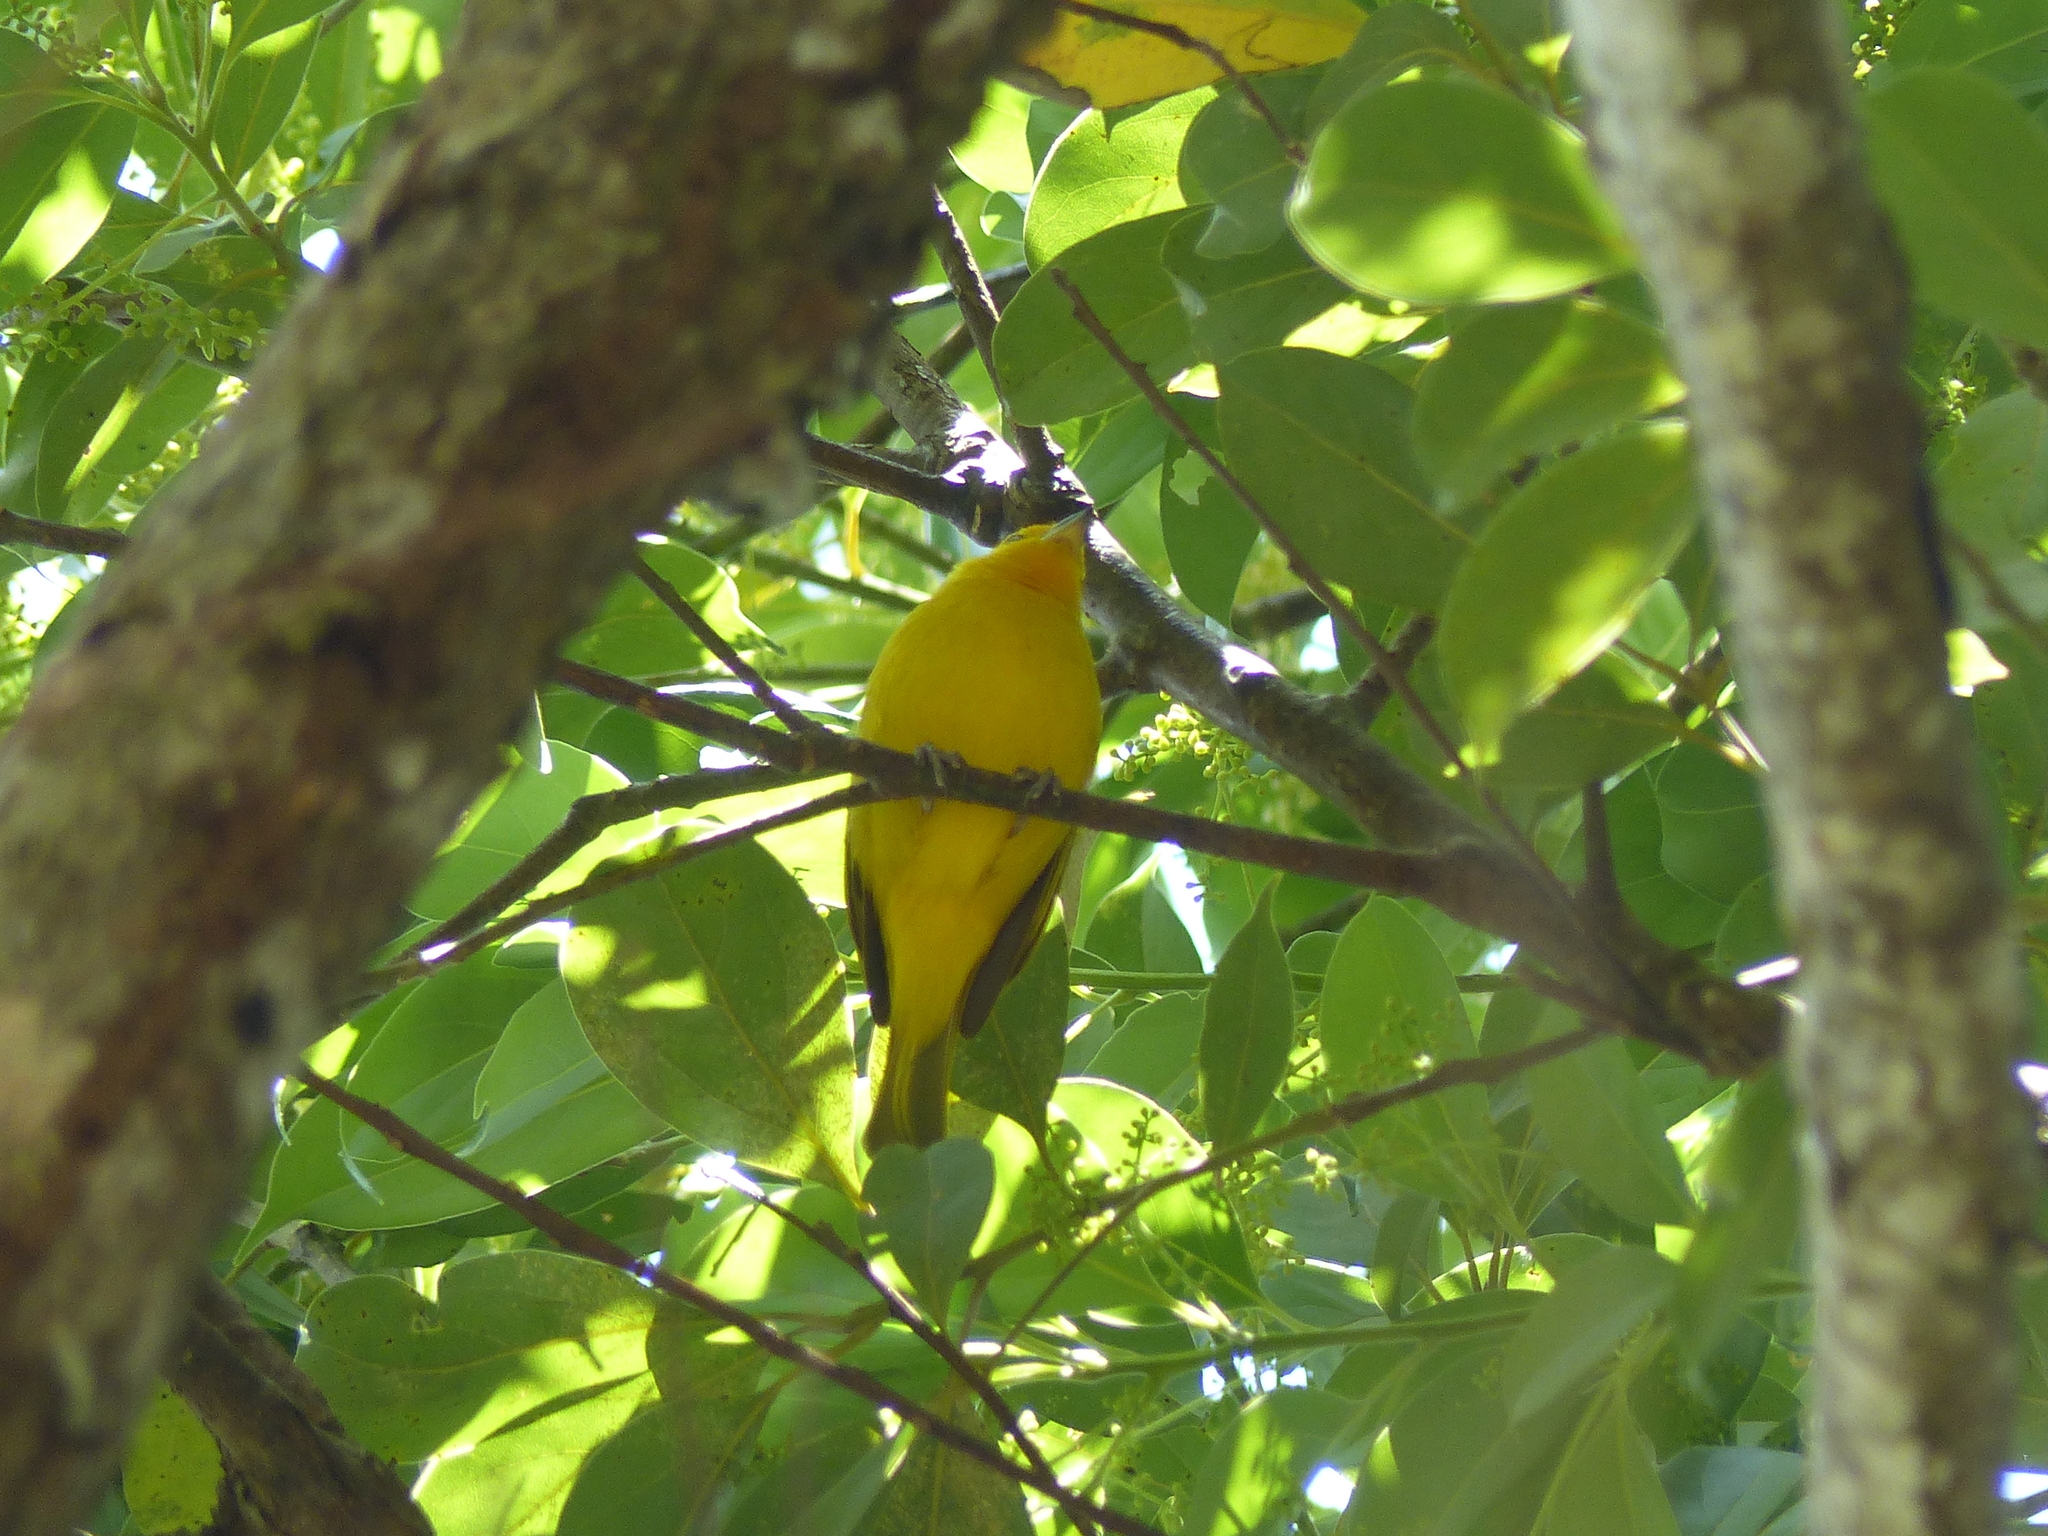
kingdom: Animalia
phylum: Chordata
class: Aves
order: Passeriformes
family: Thraupidae
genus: Sicalis
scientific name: Sicalis flaveola
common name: Saffron finch
